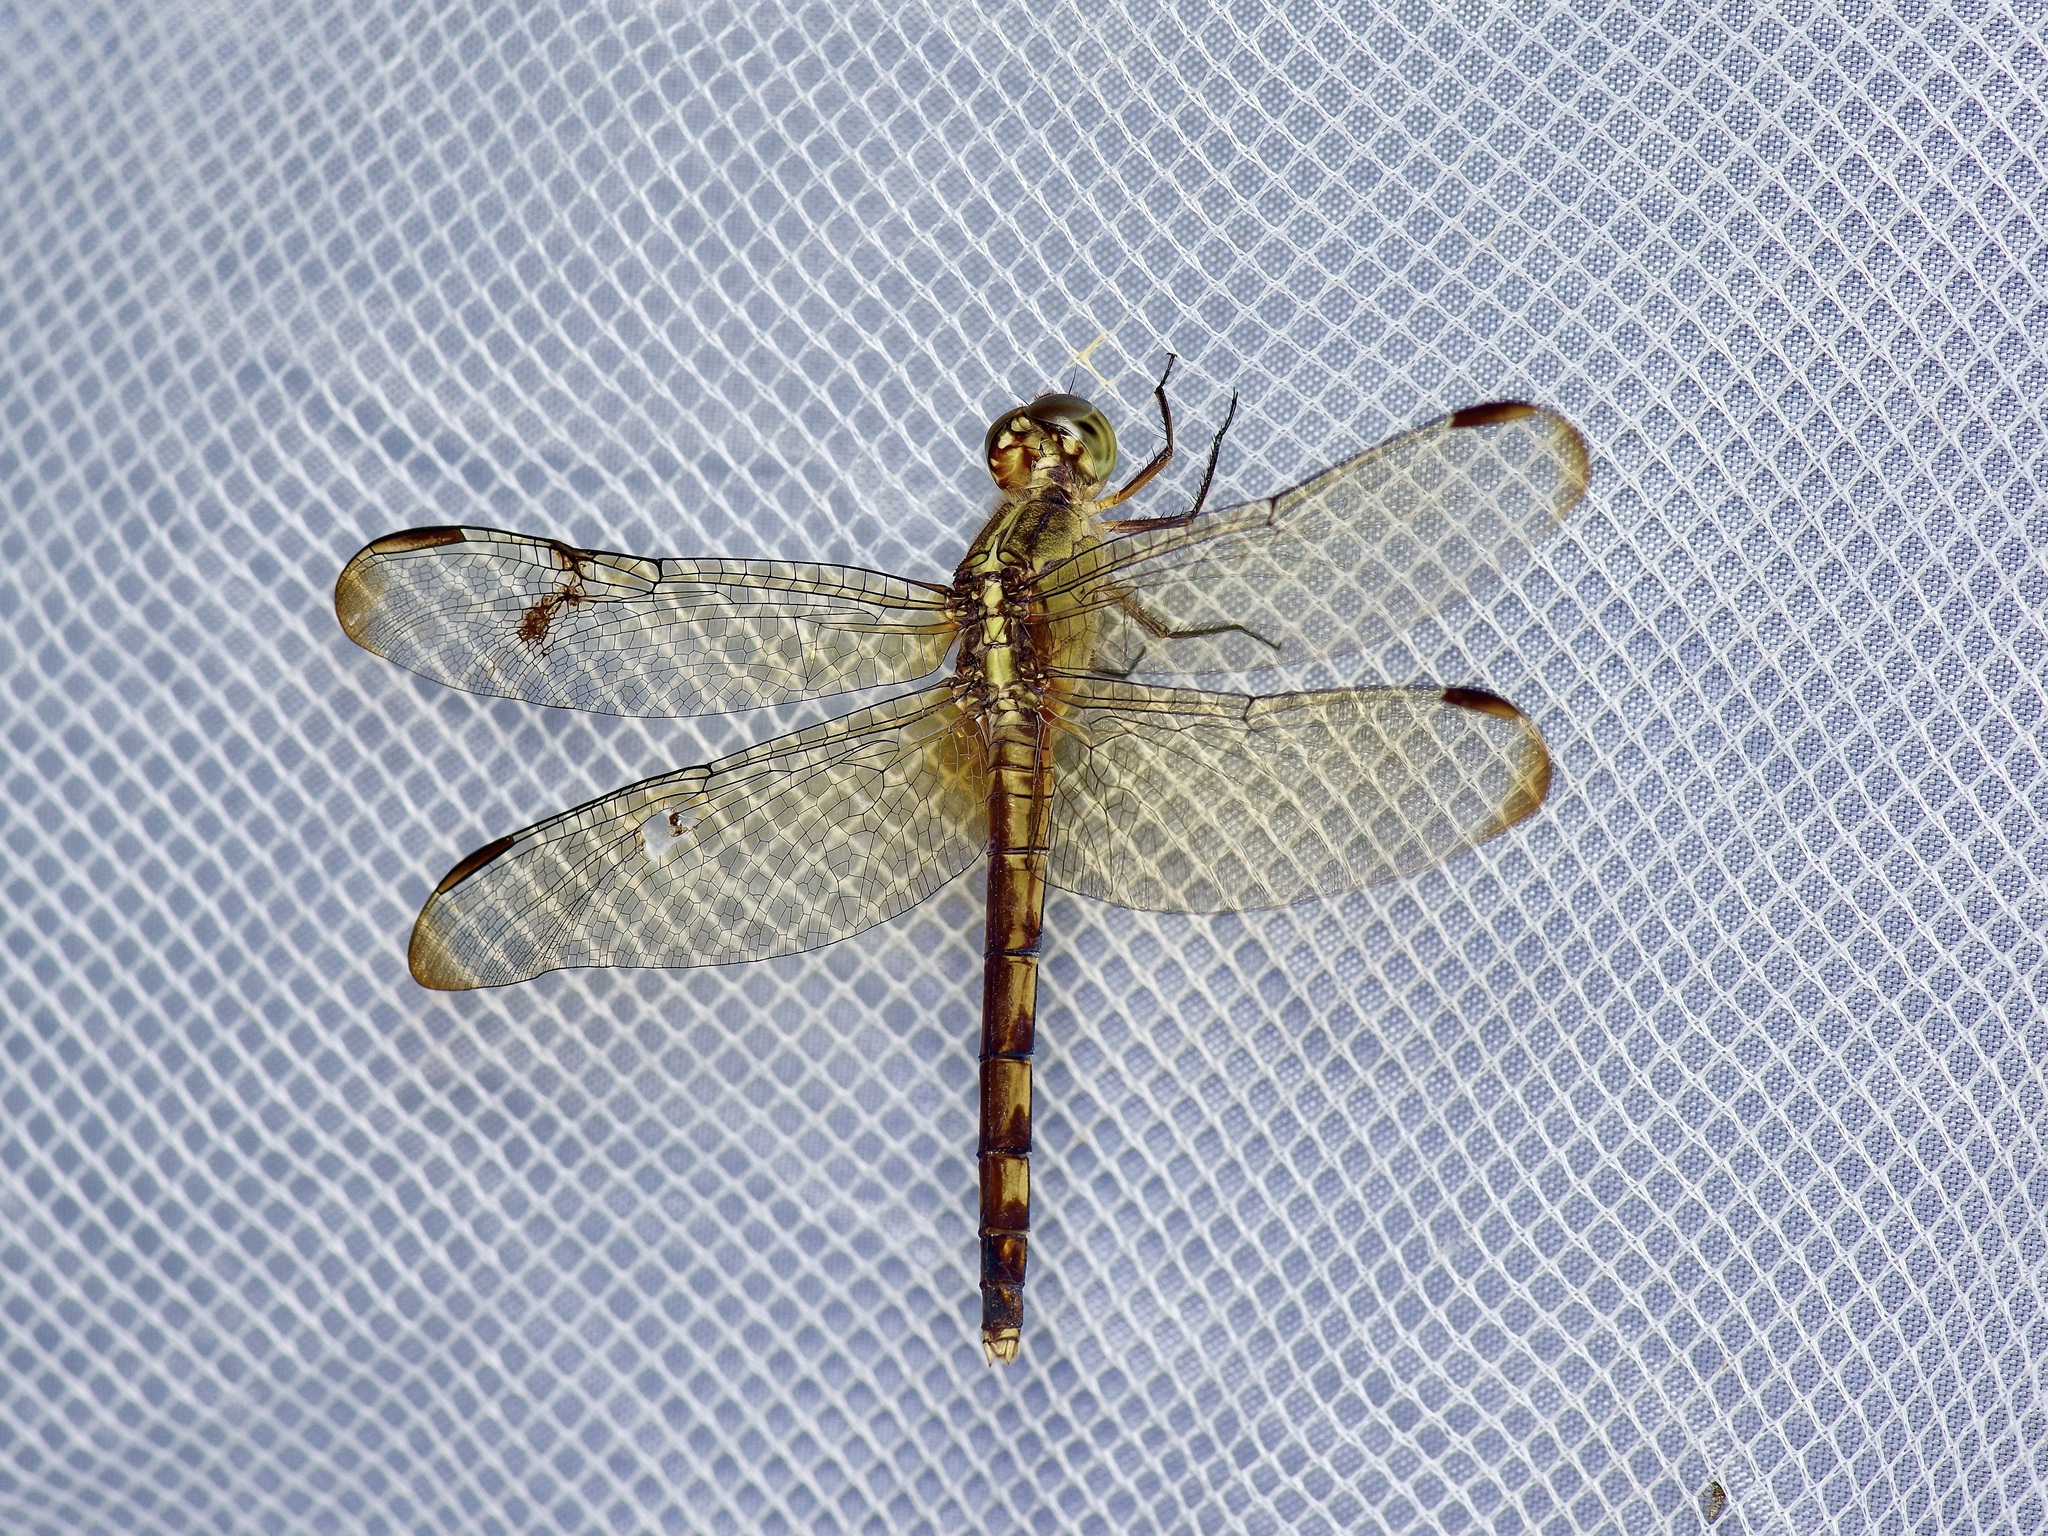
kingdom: Animalia
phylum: Arthropoda
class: Insecta
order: Odonata
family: Libellulidae
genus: Erythrodiplax
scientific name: Erythrodiplax umbrata
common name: Band-winged dragonlet
